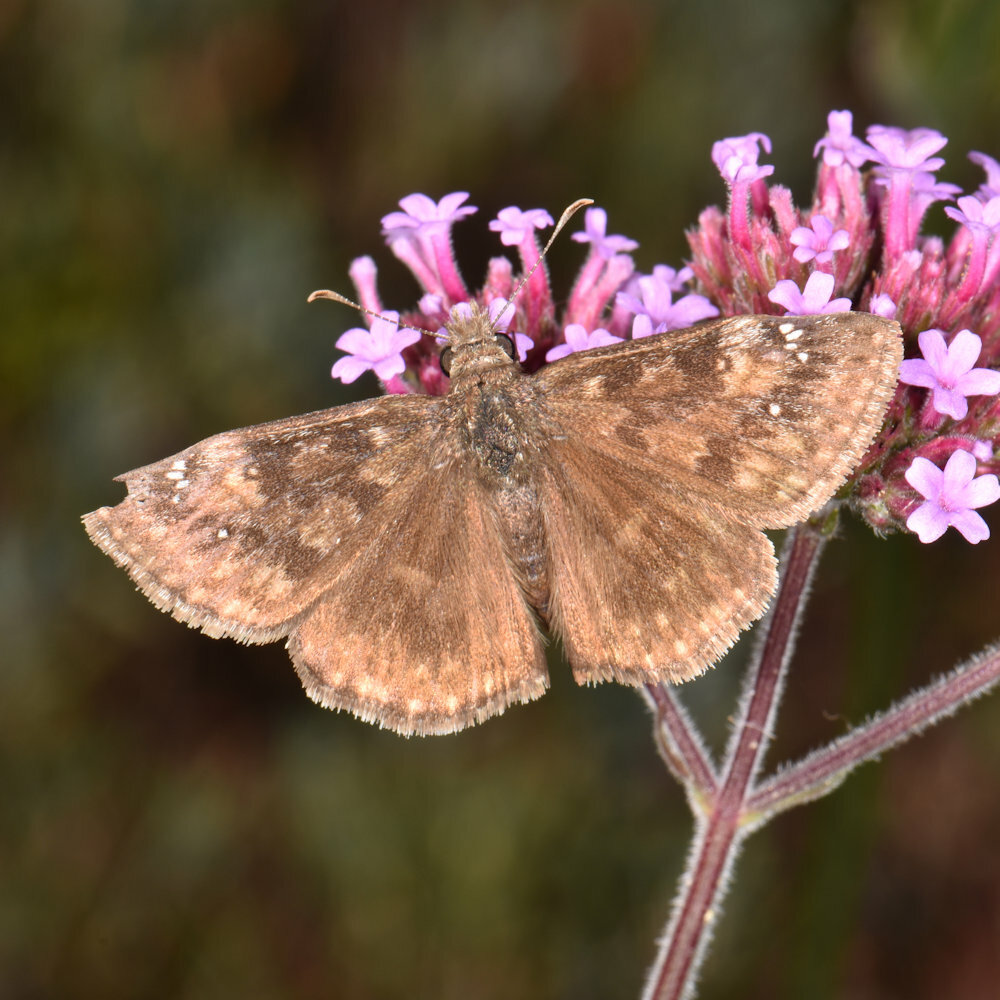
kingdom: Animalia
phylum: Arthropoda
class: Insecta
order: Lepidoptera
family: Hesperiidae
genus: Erynnis
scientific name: Erynnis baptisiae
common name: Wild indigo duskywing
